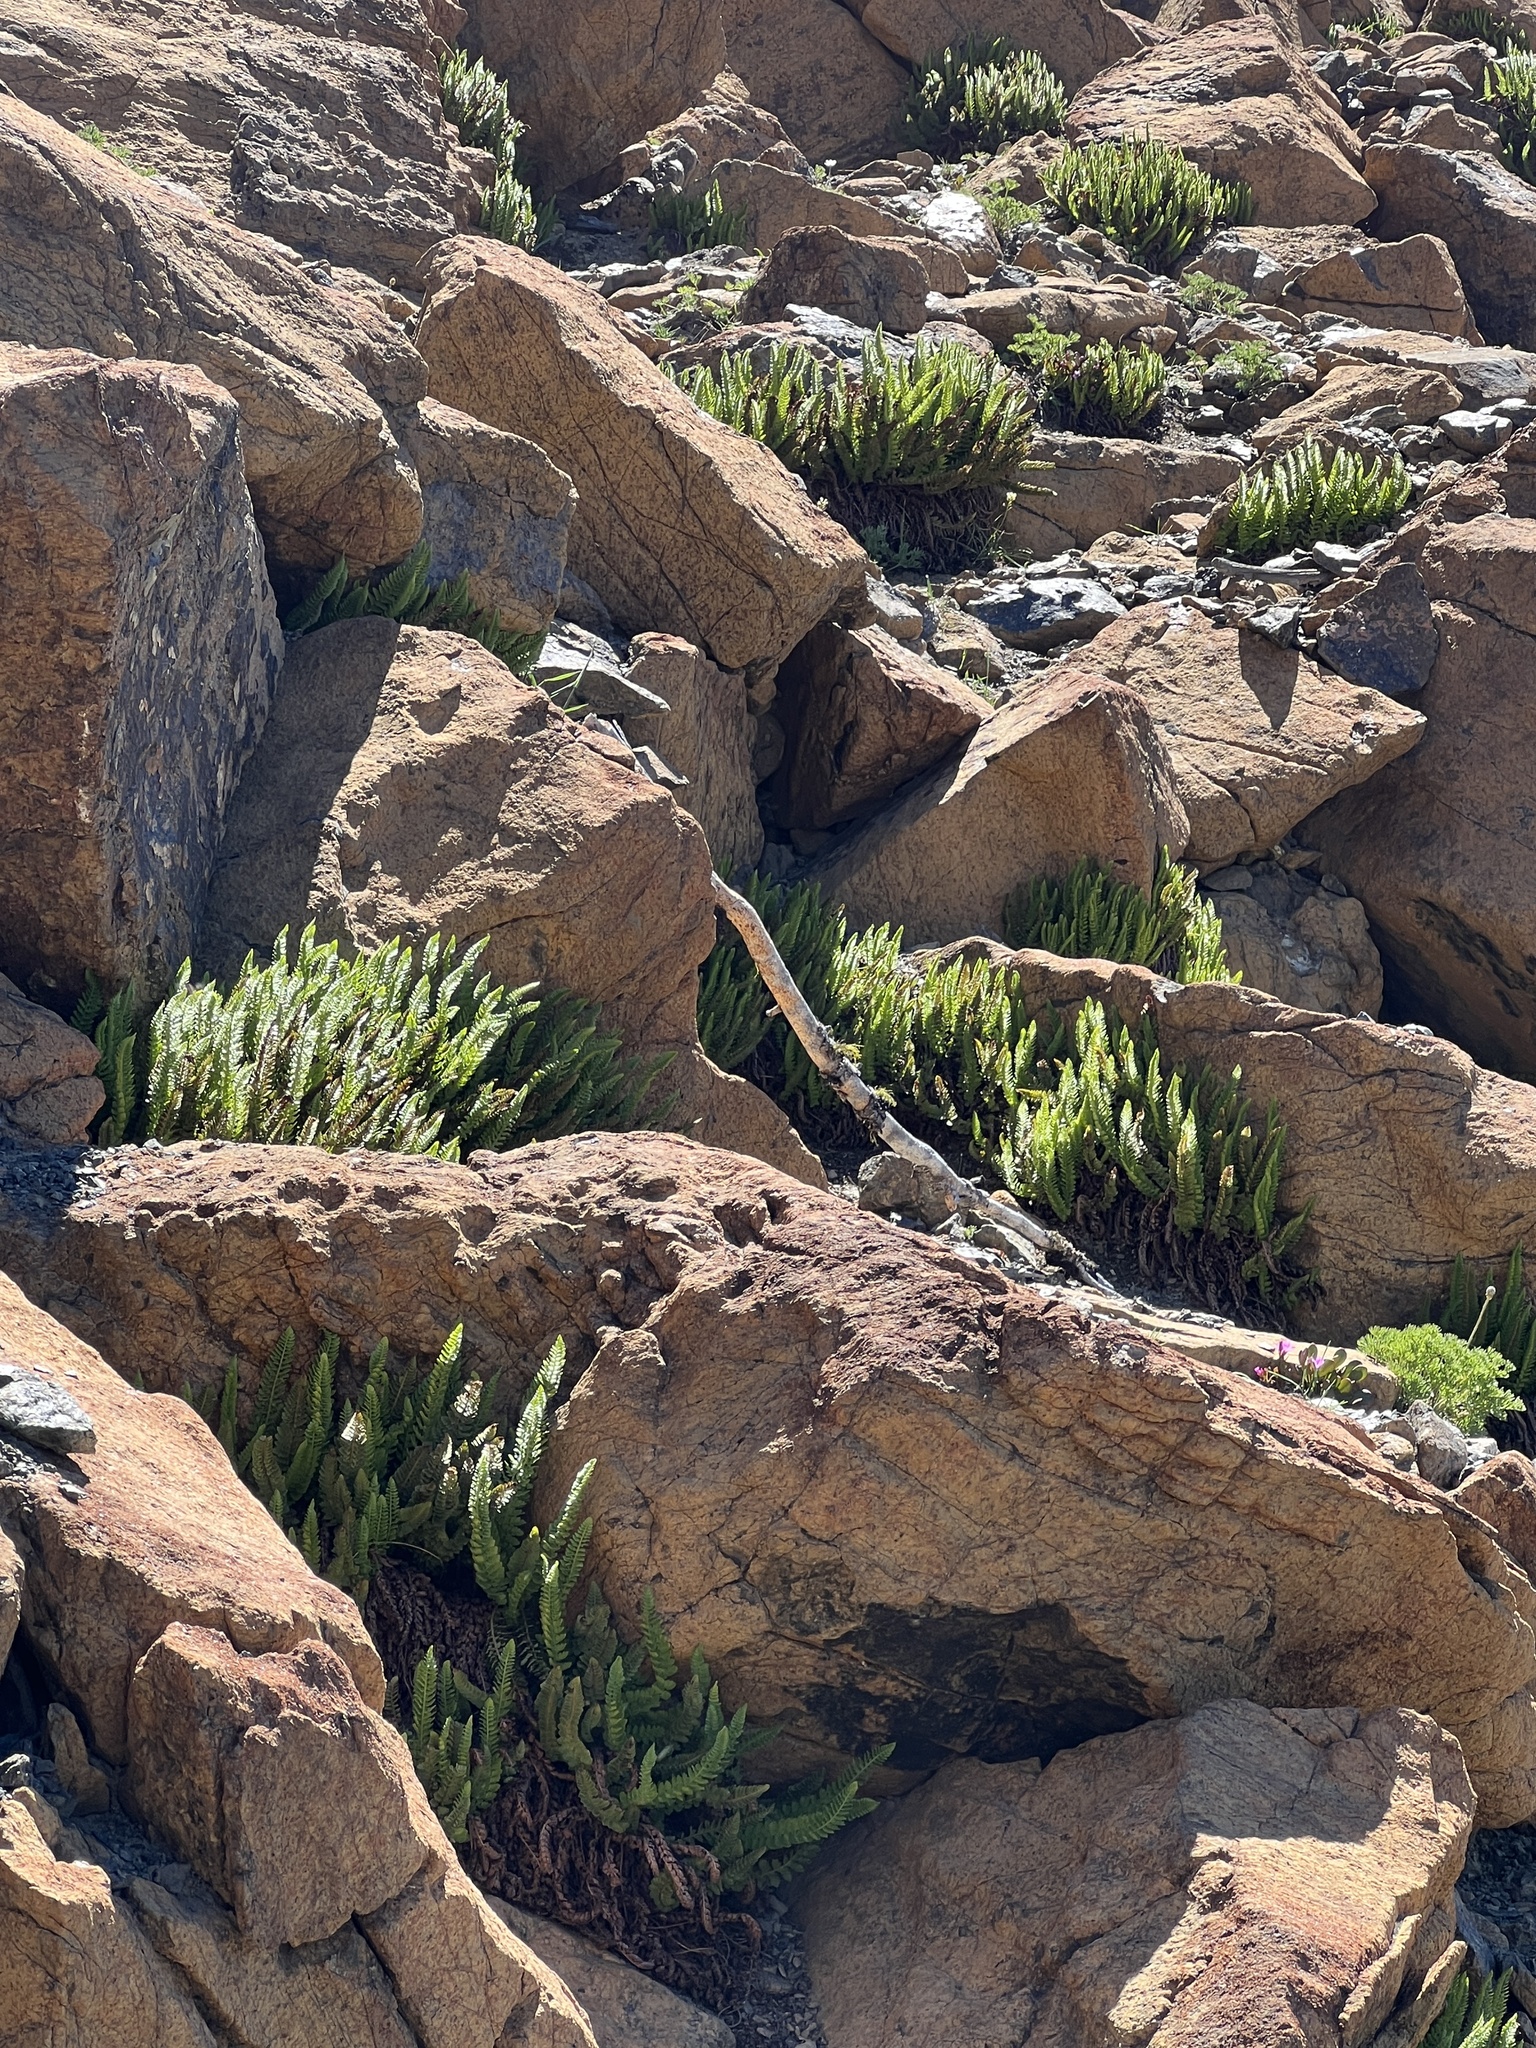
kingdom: Plantae
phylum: Tracheophyta
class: Polypodiopsida
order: Polypodiales
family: Dryopteridaceae
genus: Polystichum
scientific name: Polystichum lemmonii
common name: Lemmon's holly fern
